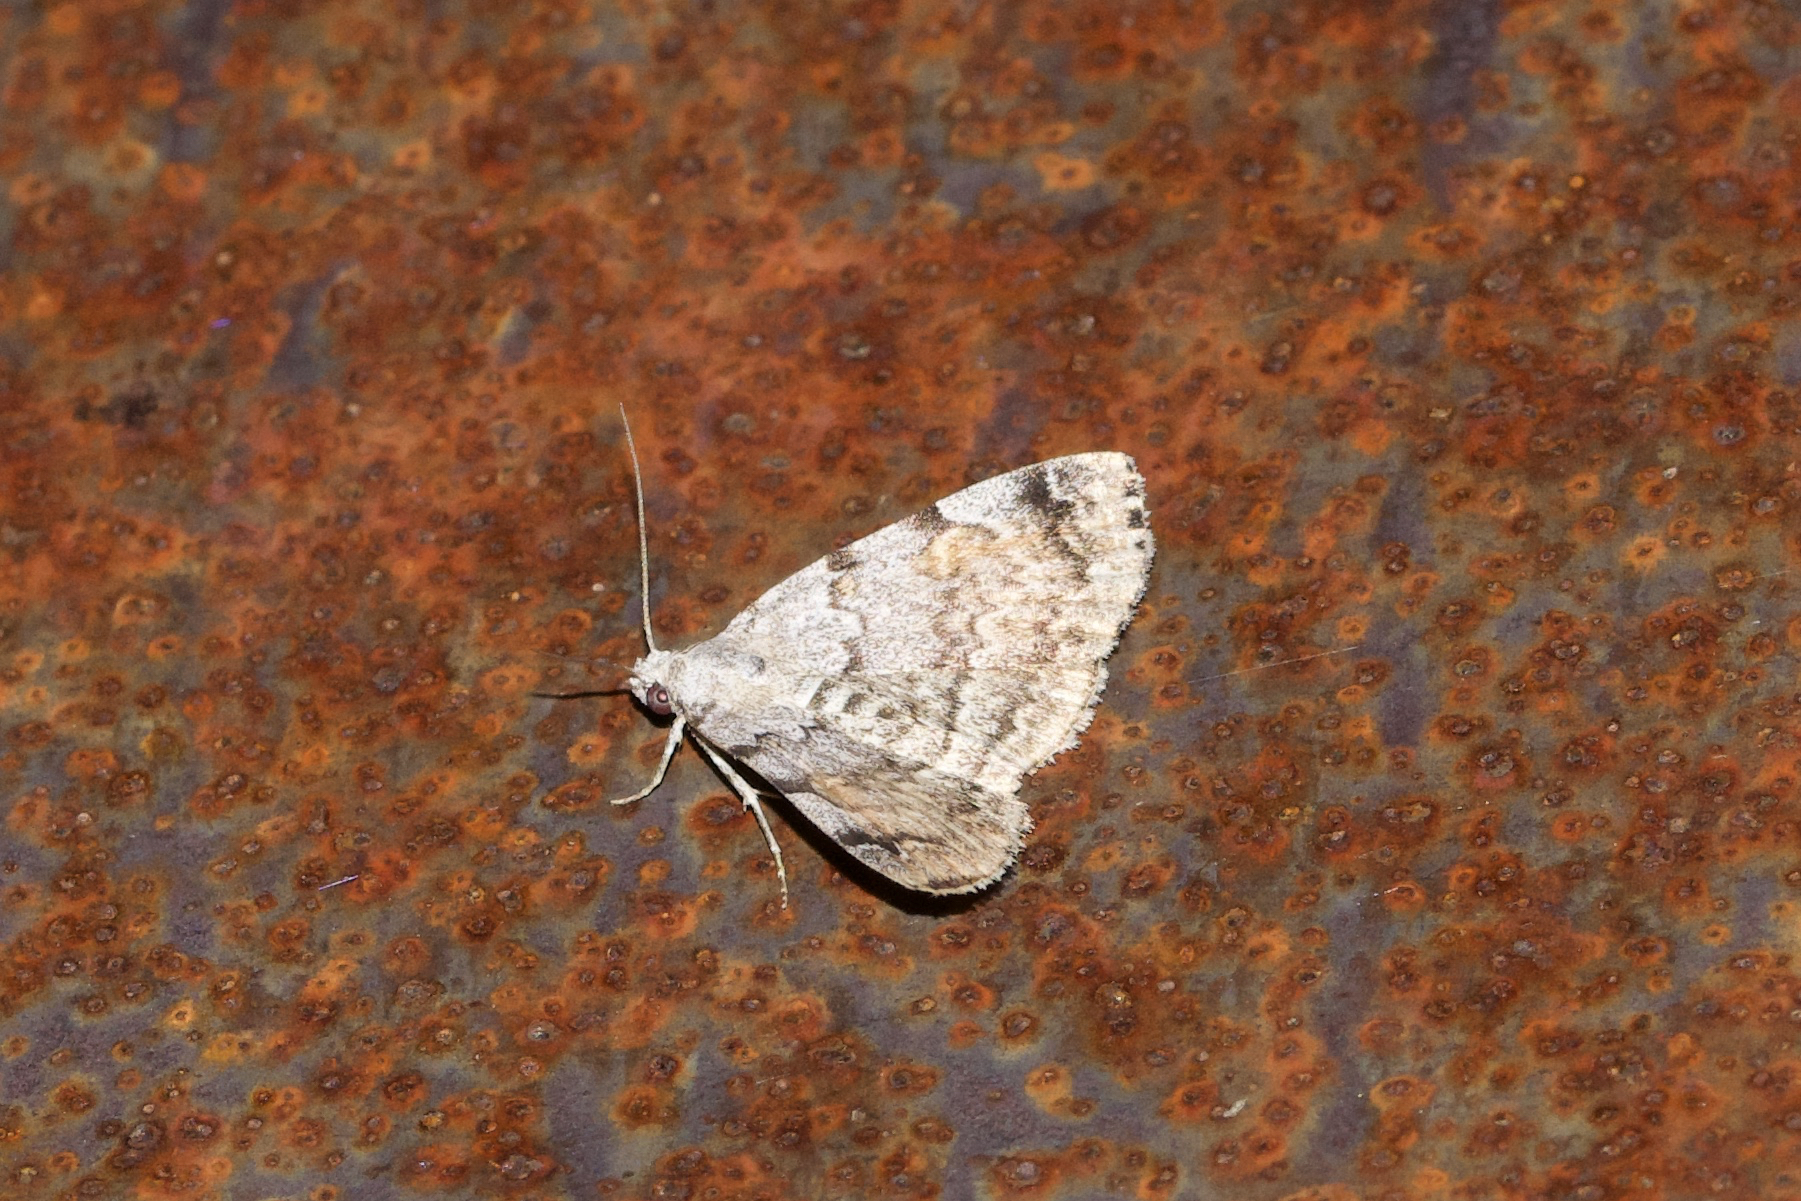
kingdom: Animalia
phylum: Arthropoda
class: Insecta
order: Lepidoptera
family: Erebidae
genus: Idia
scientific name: Idia americalis
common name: American idia moth
